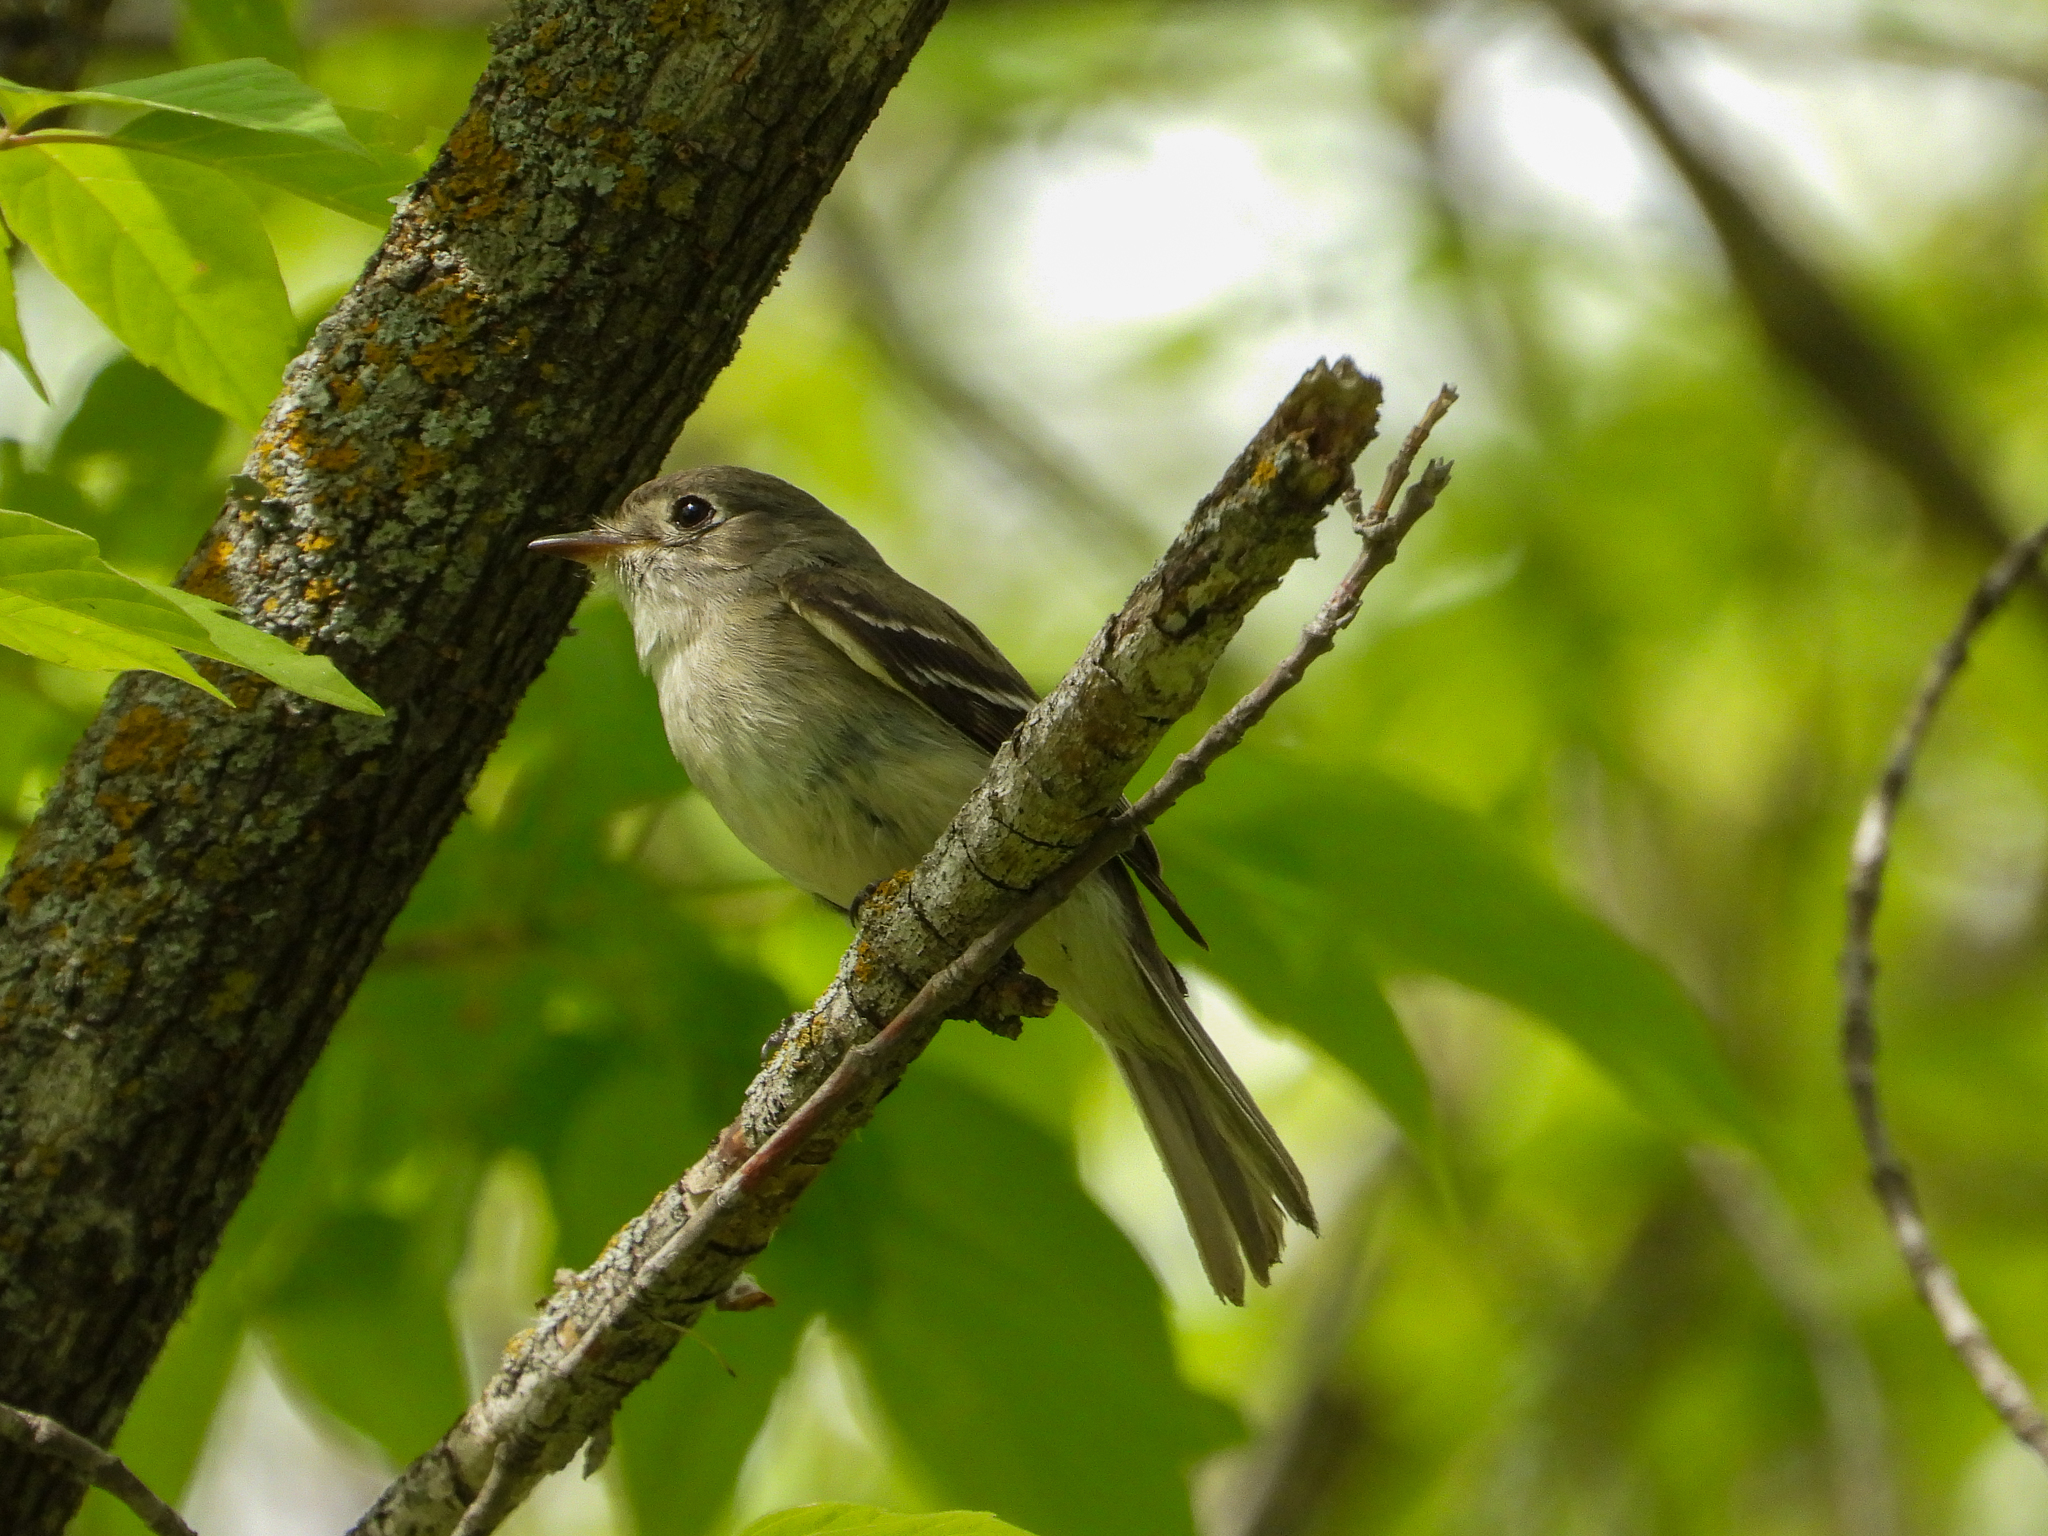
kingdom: Animalia
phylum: Chordata
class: Aves
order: Passeriformes
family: Tyrannidae
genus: Empidonax
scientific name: Empidonax minimus
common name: Least flycatcher
